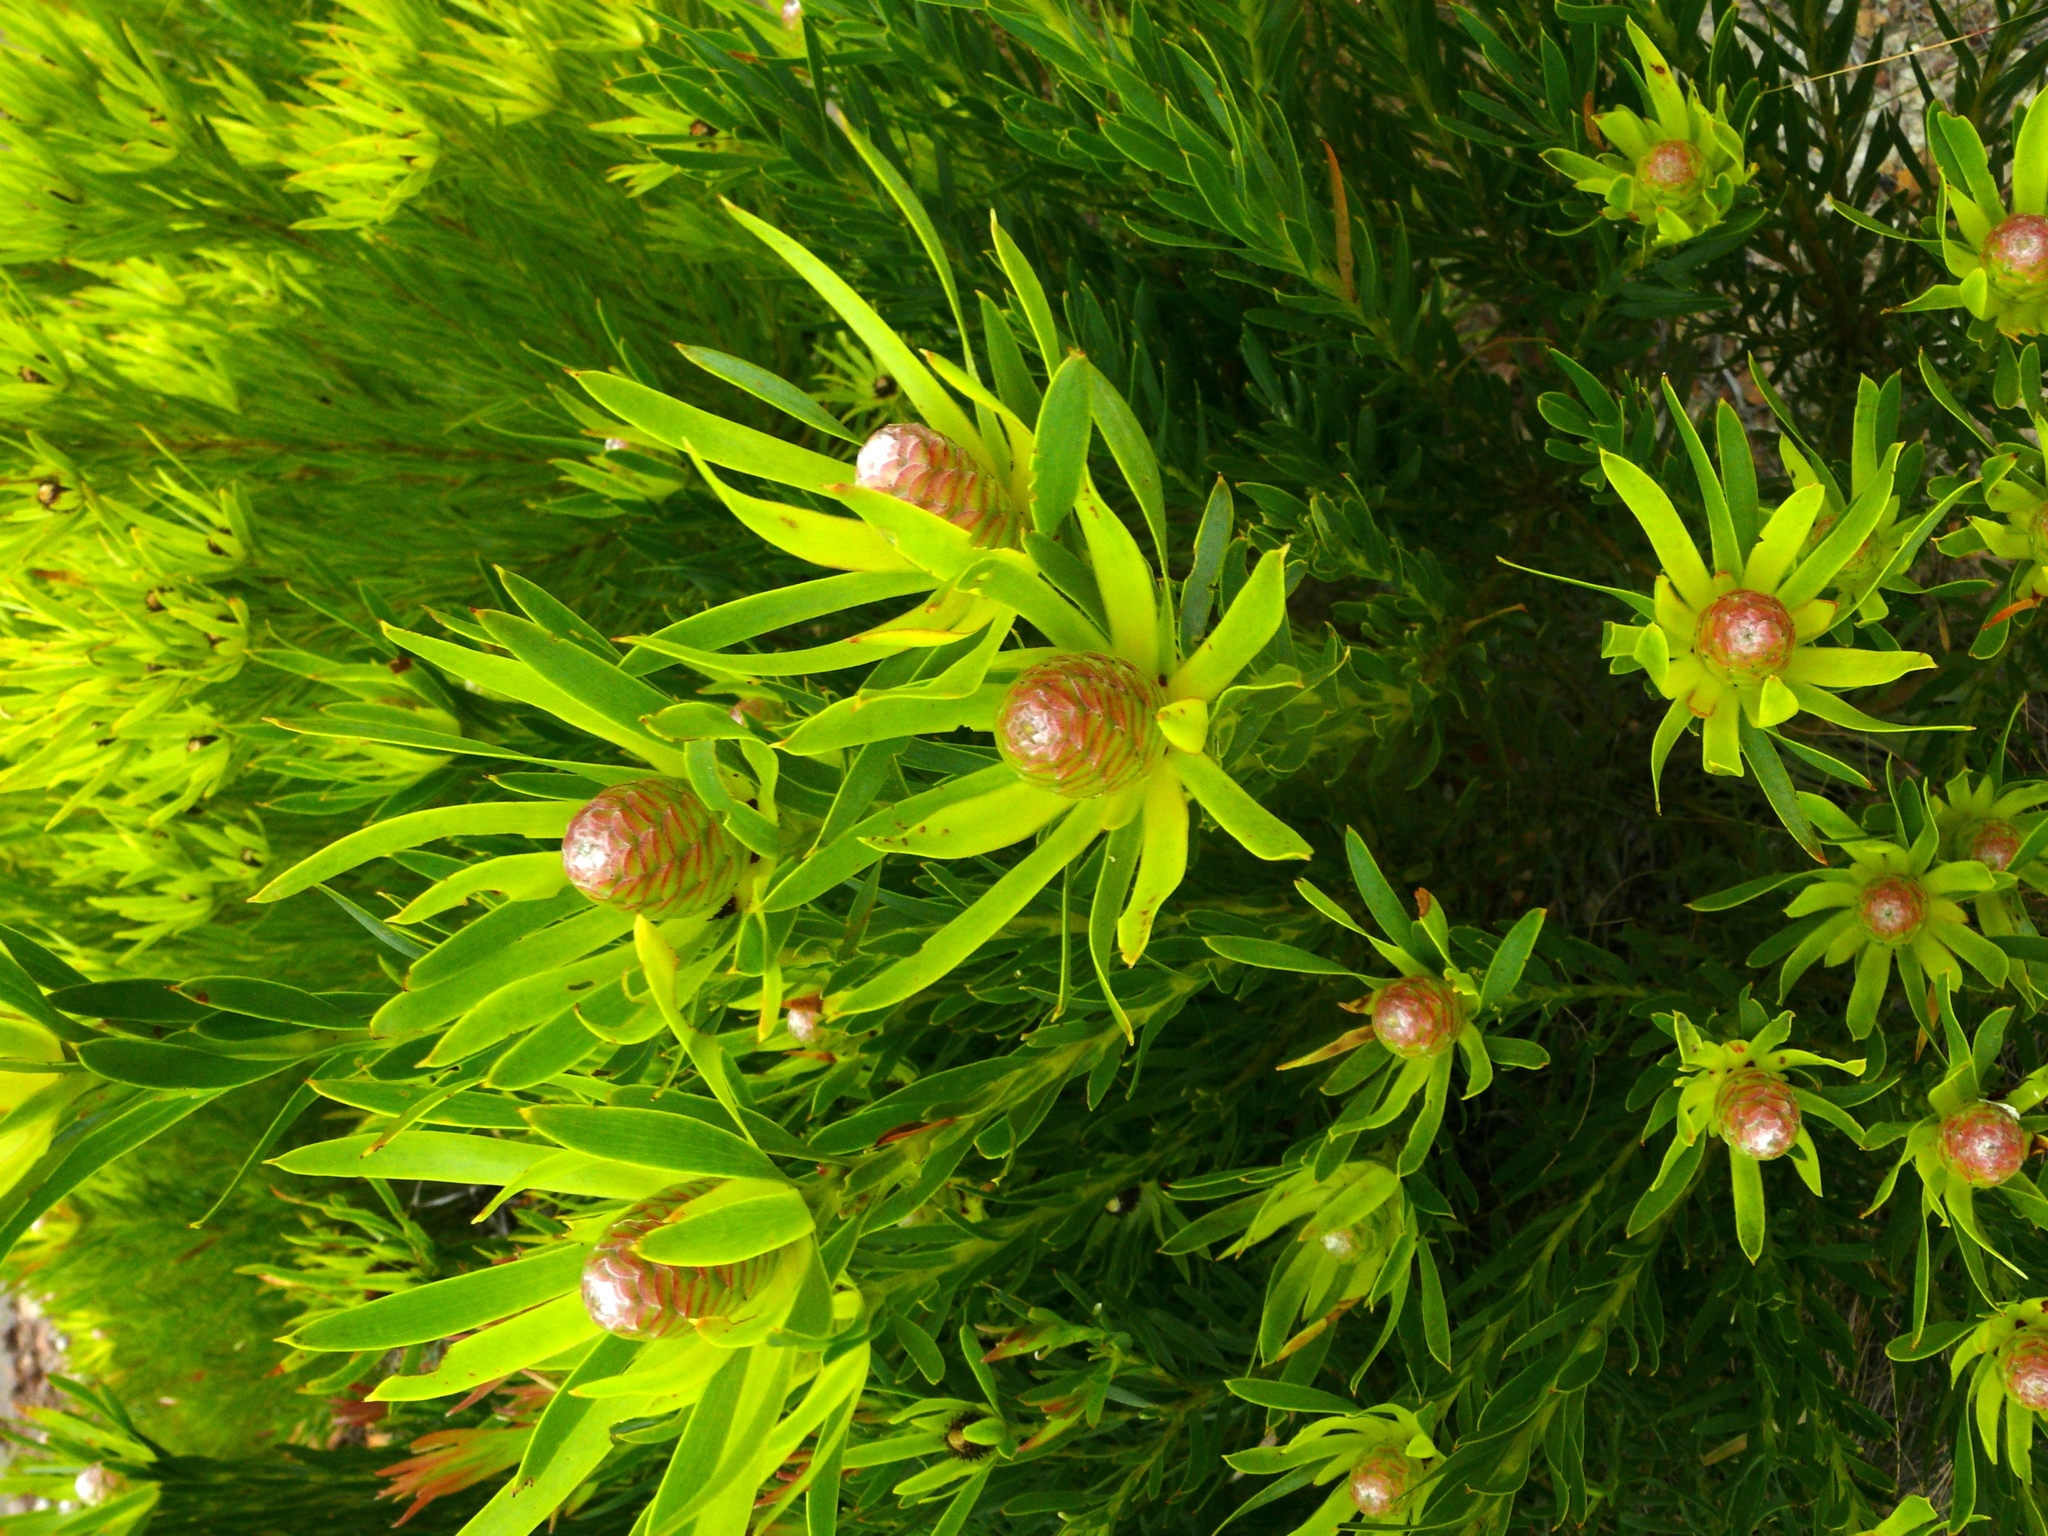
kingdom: Plantae
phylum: Tracheophyta
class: Magnoliopsida
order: Proteales
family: Proteaceae
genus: Leucadendron
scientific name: Leucadendron xanthoconus
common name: Sickle-leaf conebush
